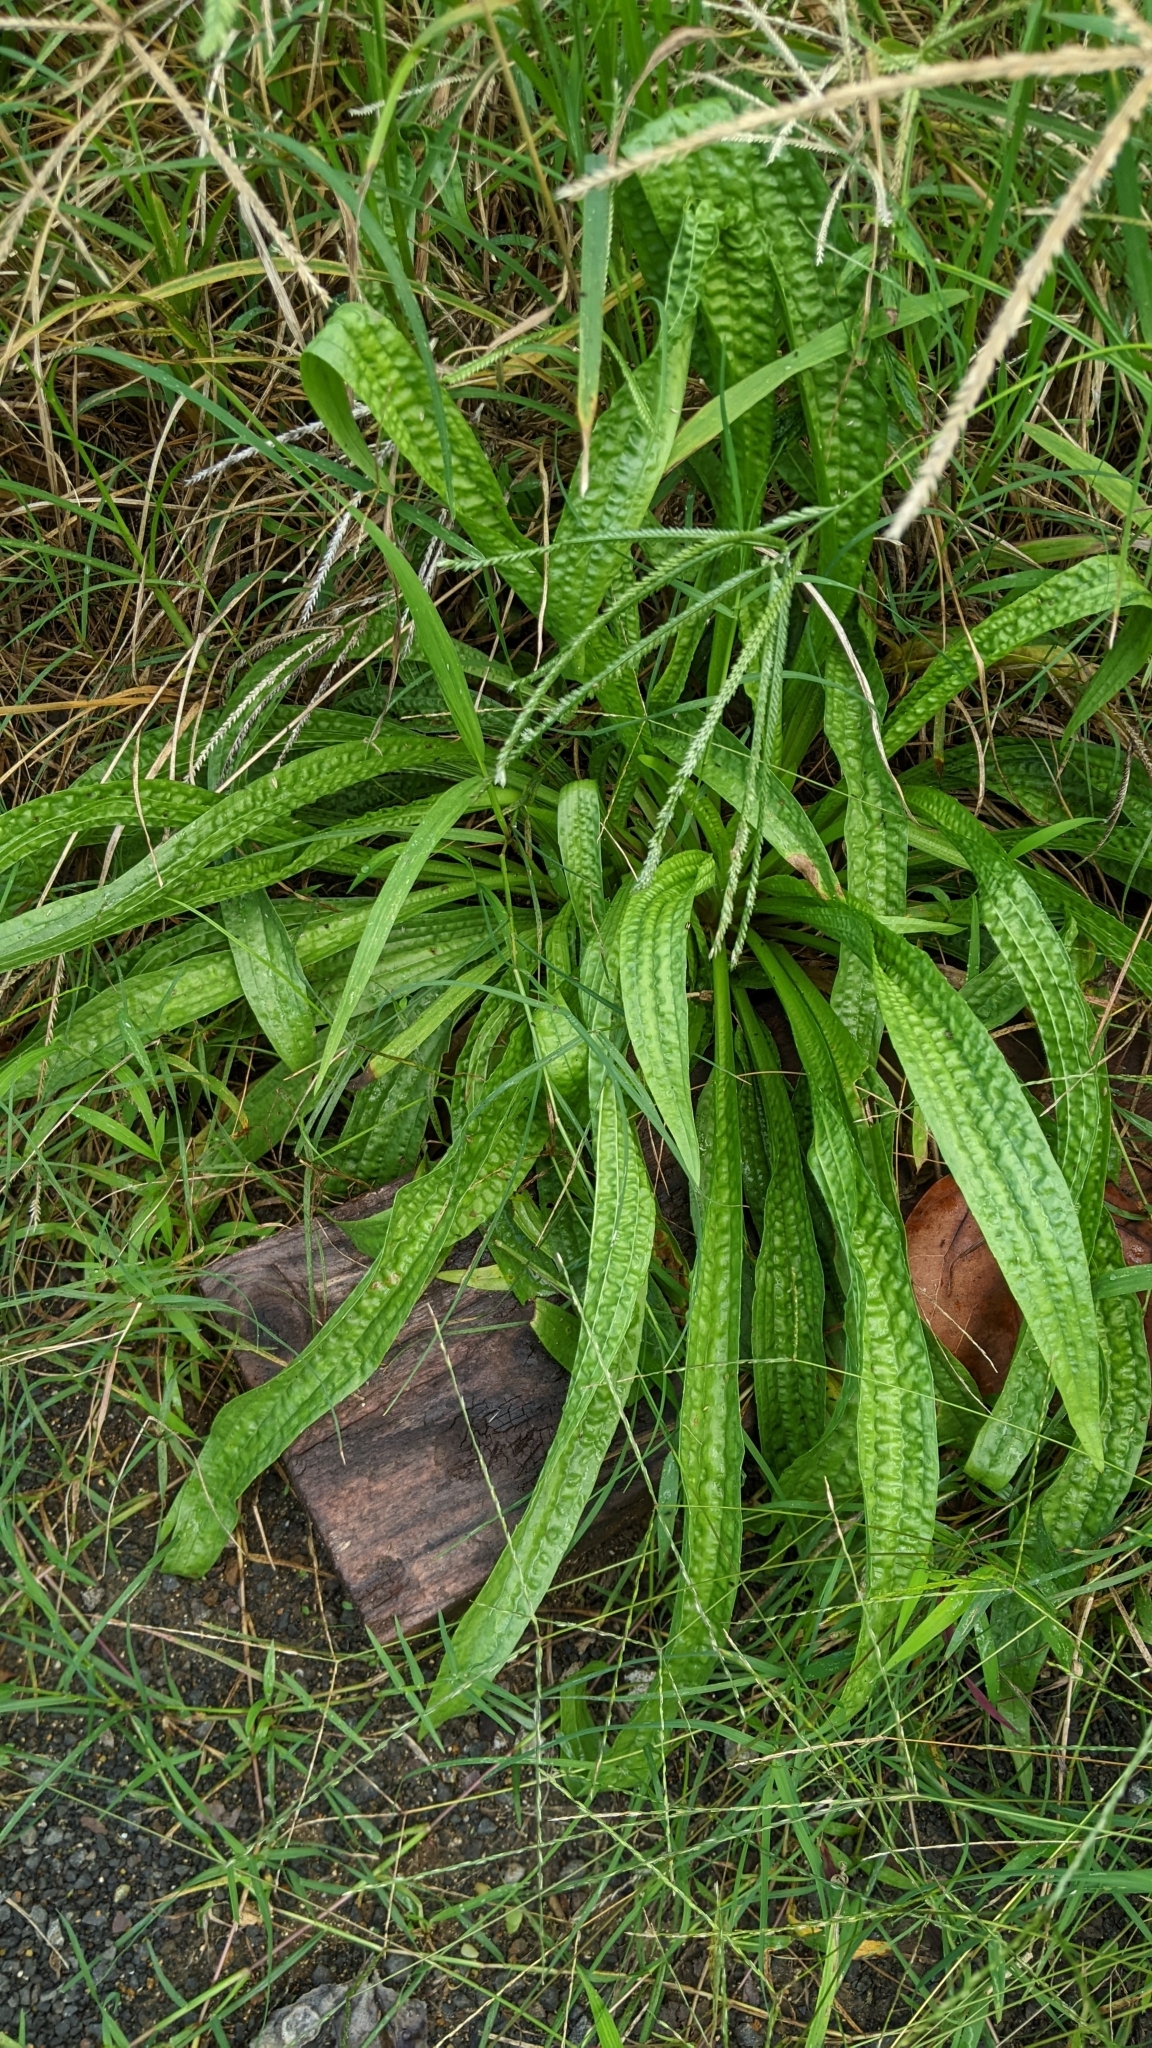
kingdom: Plantae
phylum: Tracheophyta
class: Magnoliopsida
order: Lamiales
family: Plantaginaceae
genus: Plantago
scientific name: Plantago lanceolata
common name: Ribwort plantain
